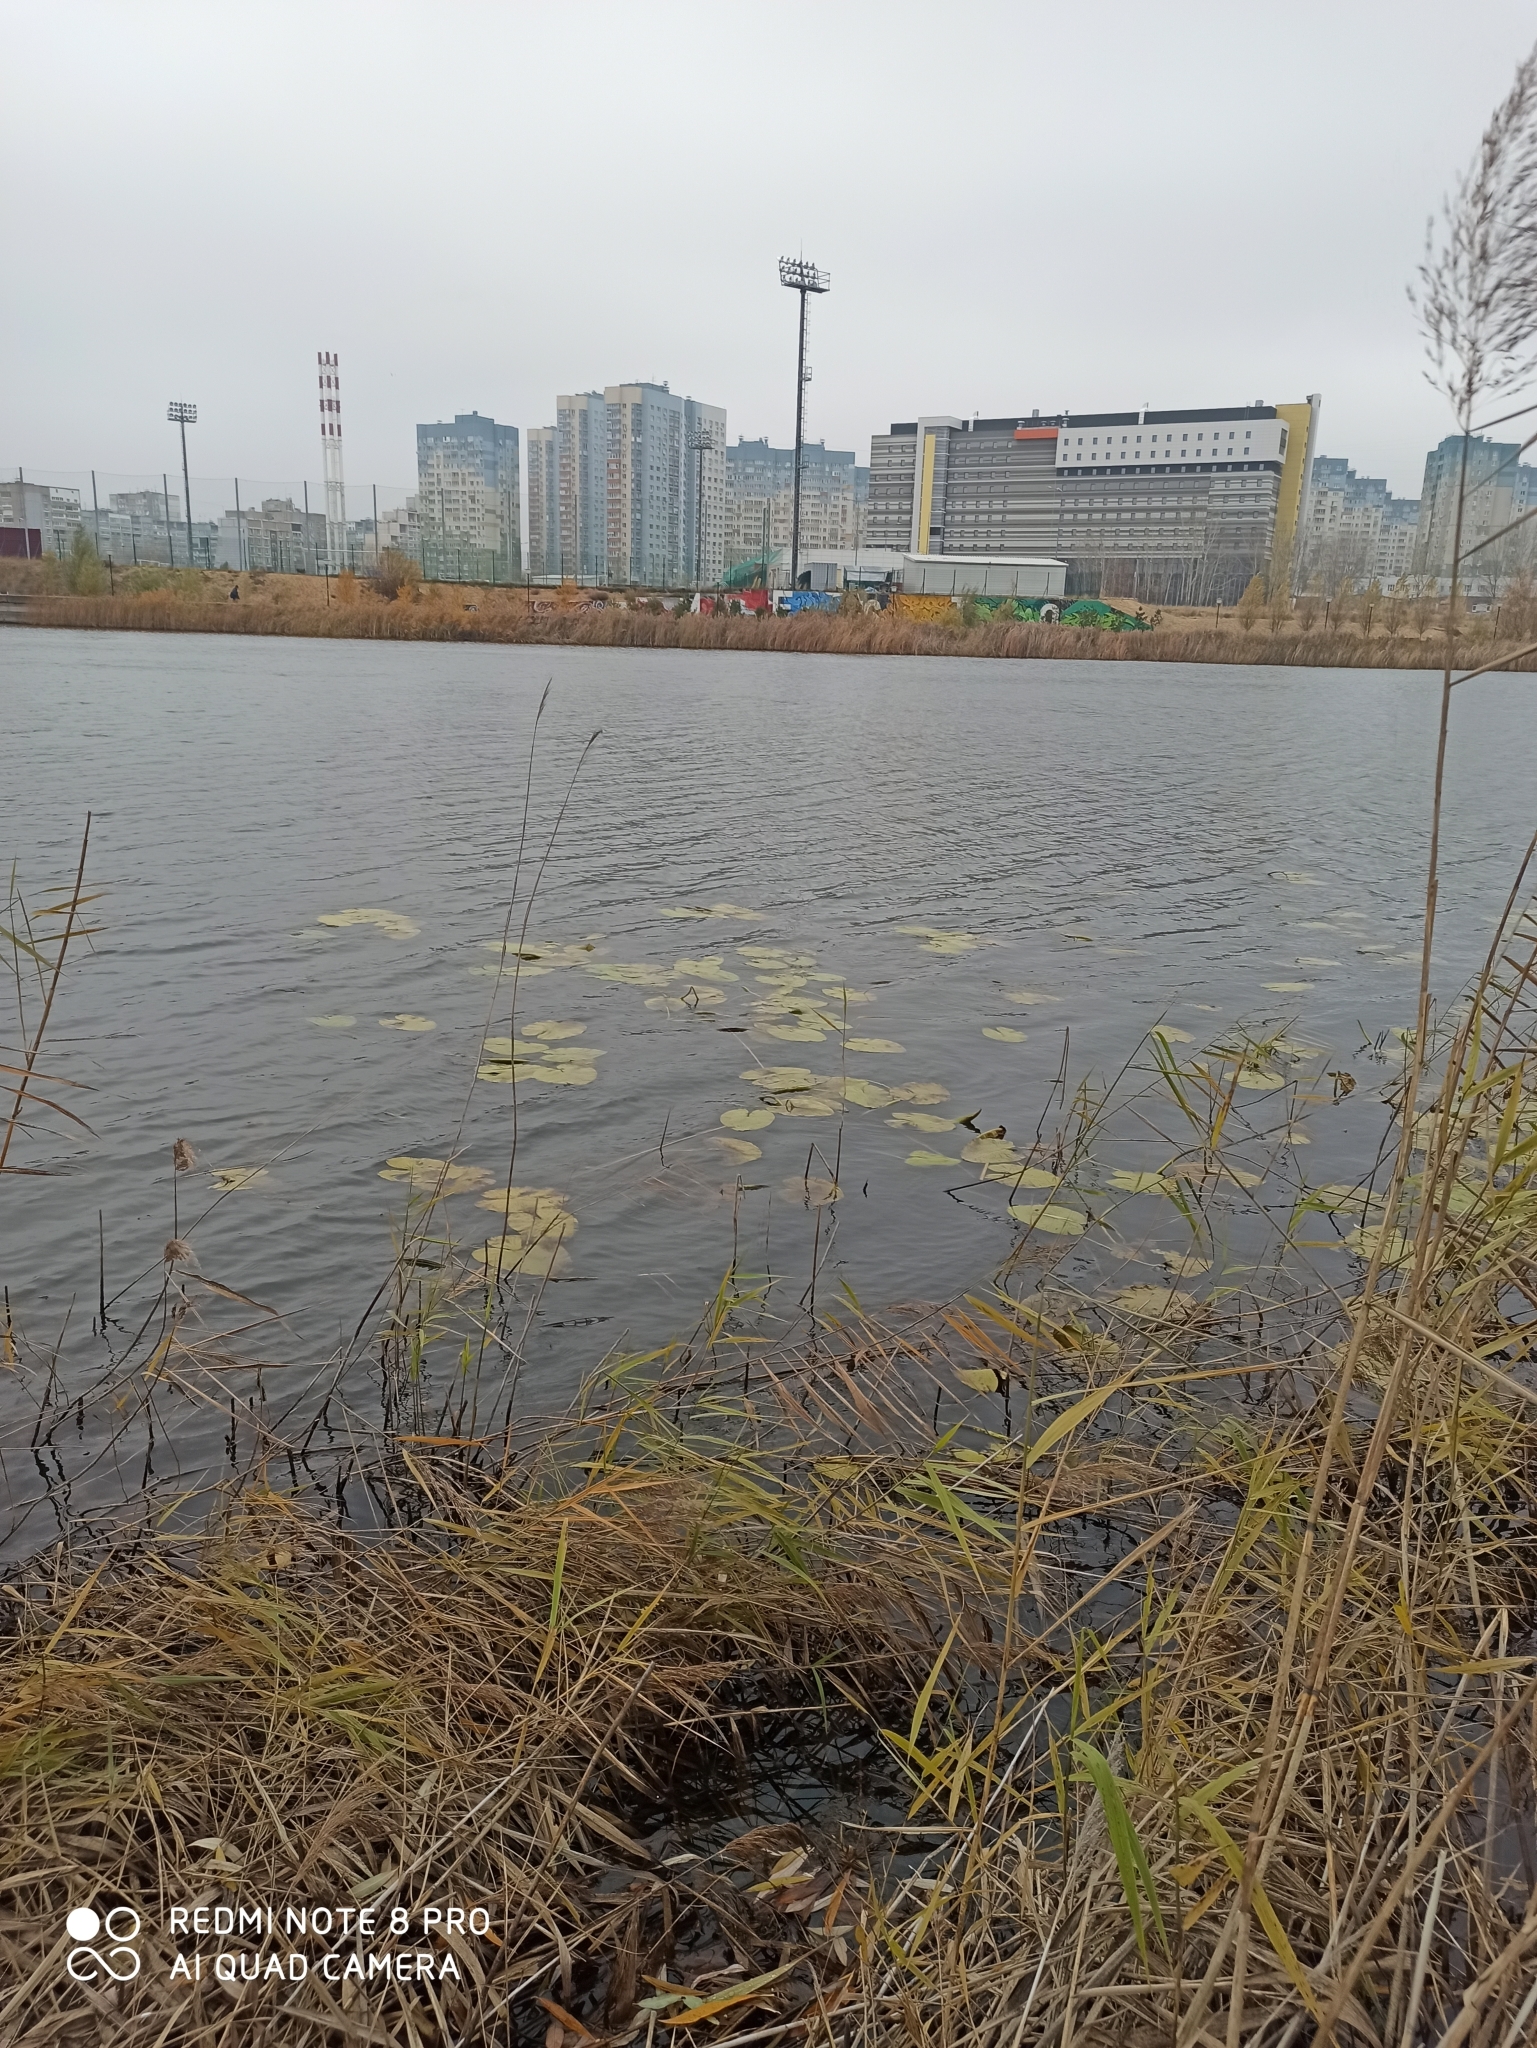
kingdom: Plantae
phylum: Tracheophyta
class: Magnoliopsida
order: Nymphaeales
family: Nymphaeaceae
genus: Nuphar
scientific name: Nuphar lutea
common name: Yellow water-lily
